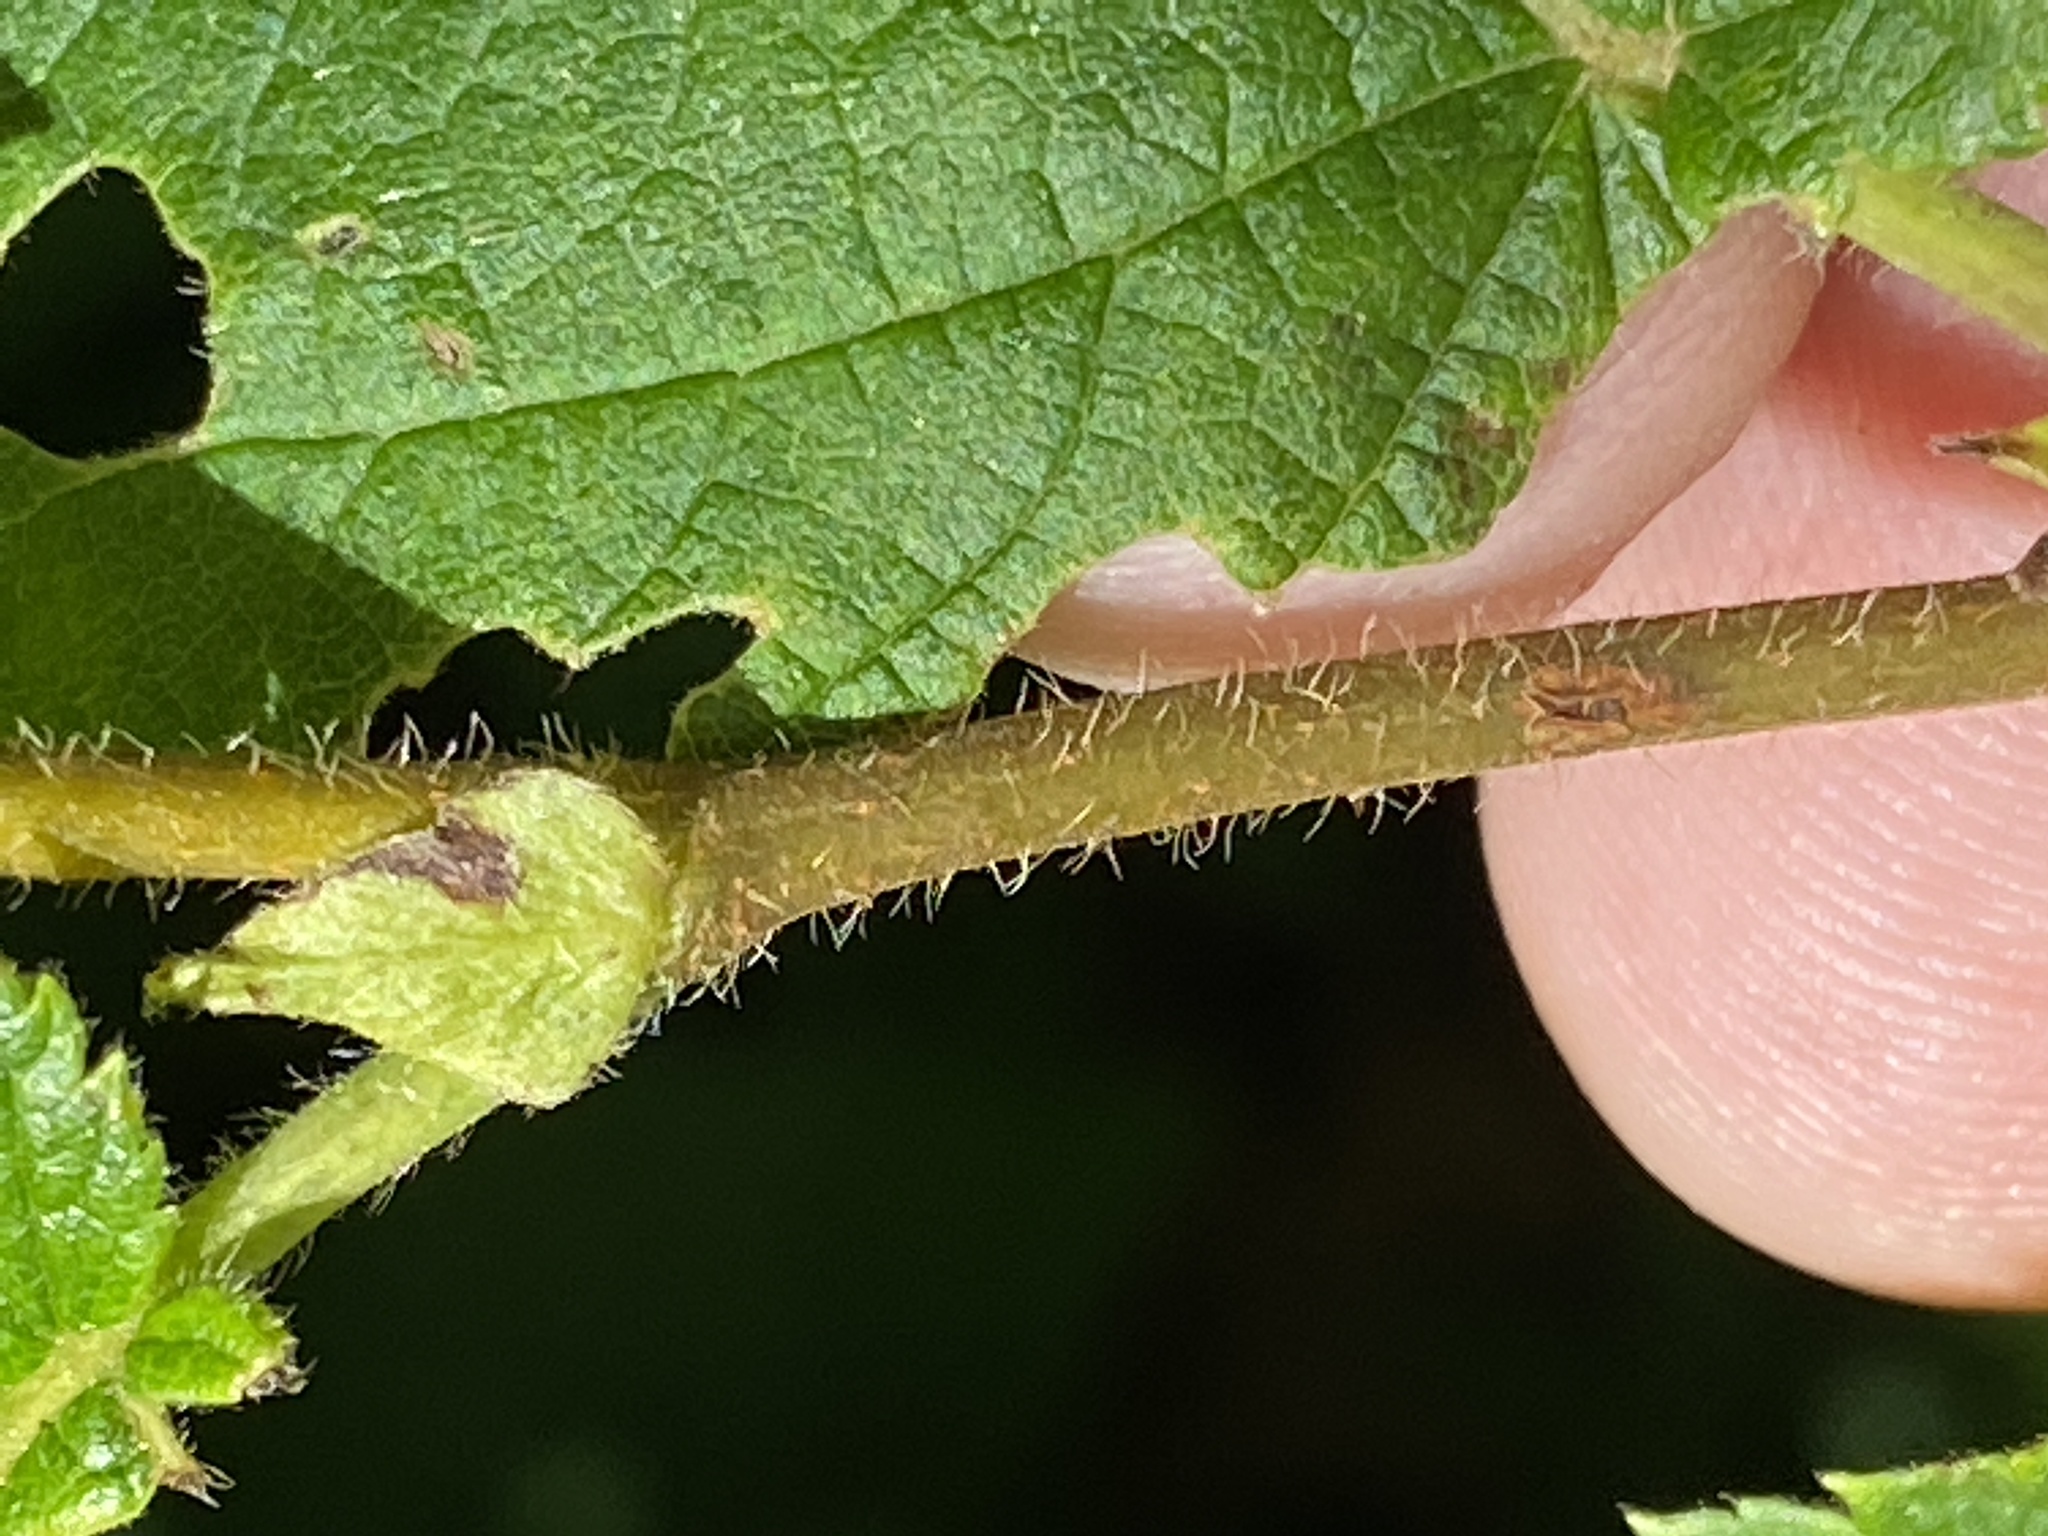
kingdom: Plantae
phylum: Tracheophyta
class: Magnoliopsida
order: Fagales
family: Betulaceae
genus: Corylus
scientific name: Corylus cornuta
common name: Beaked hazel
